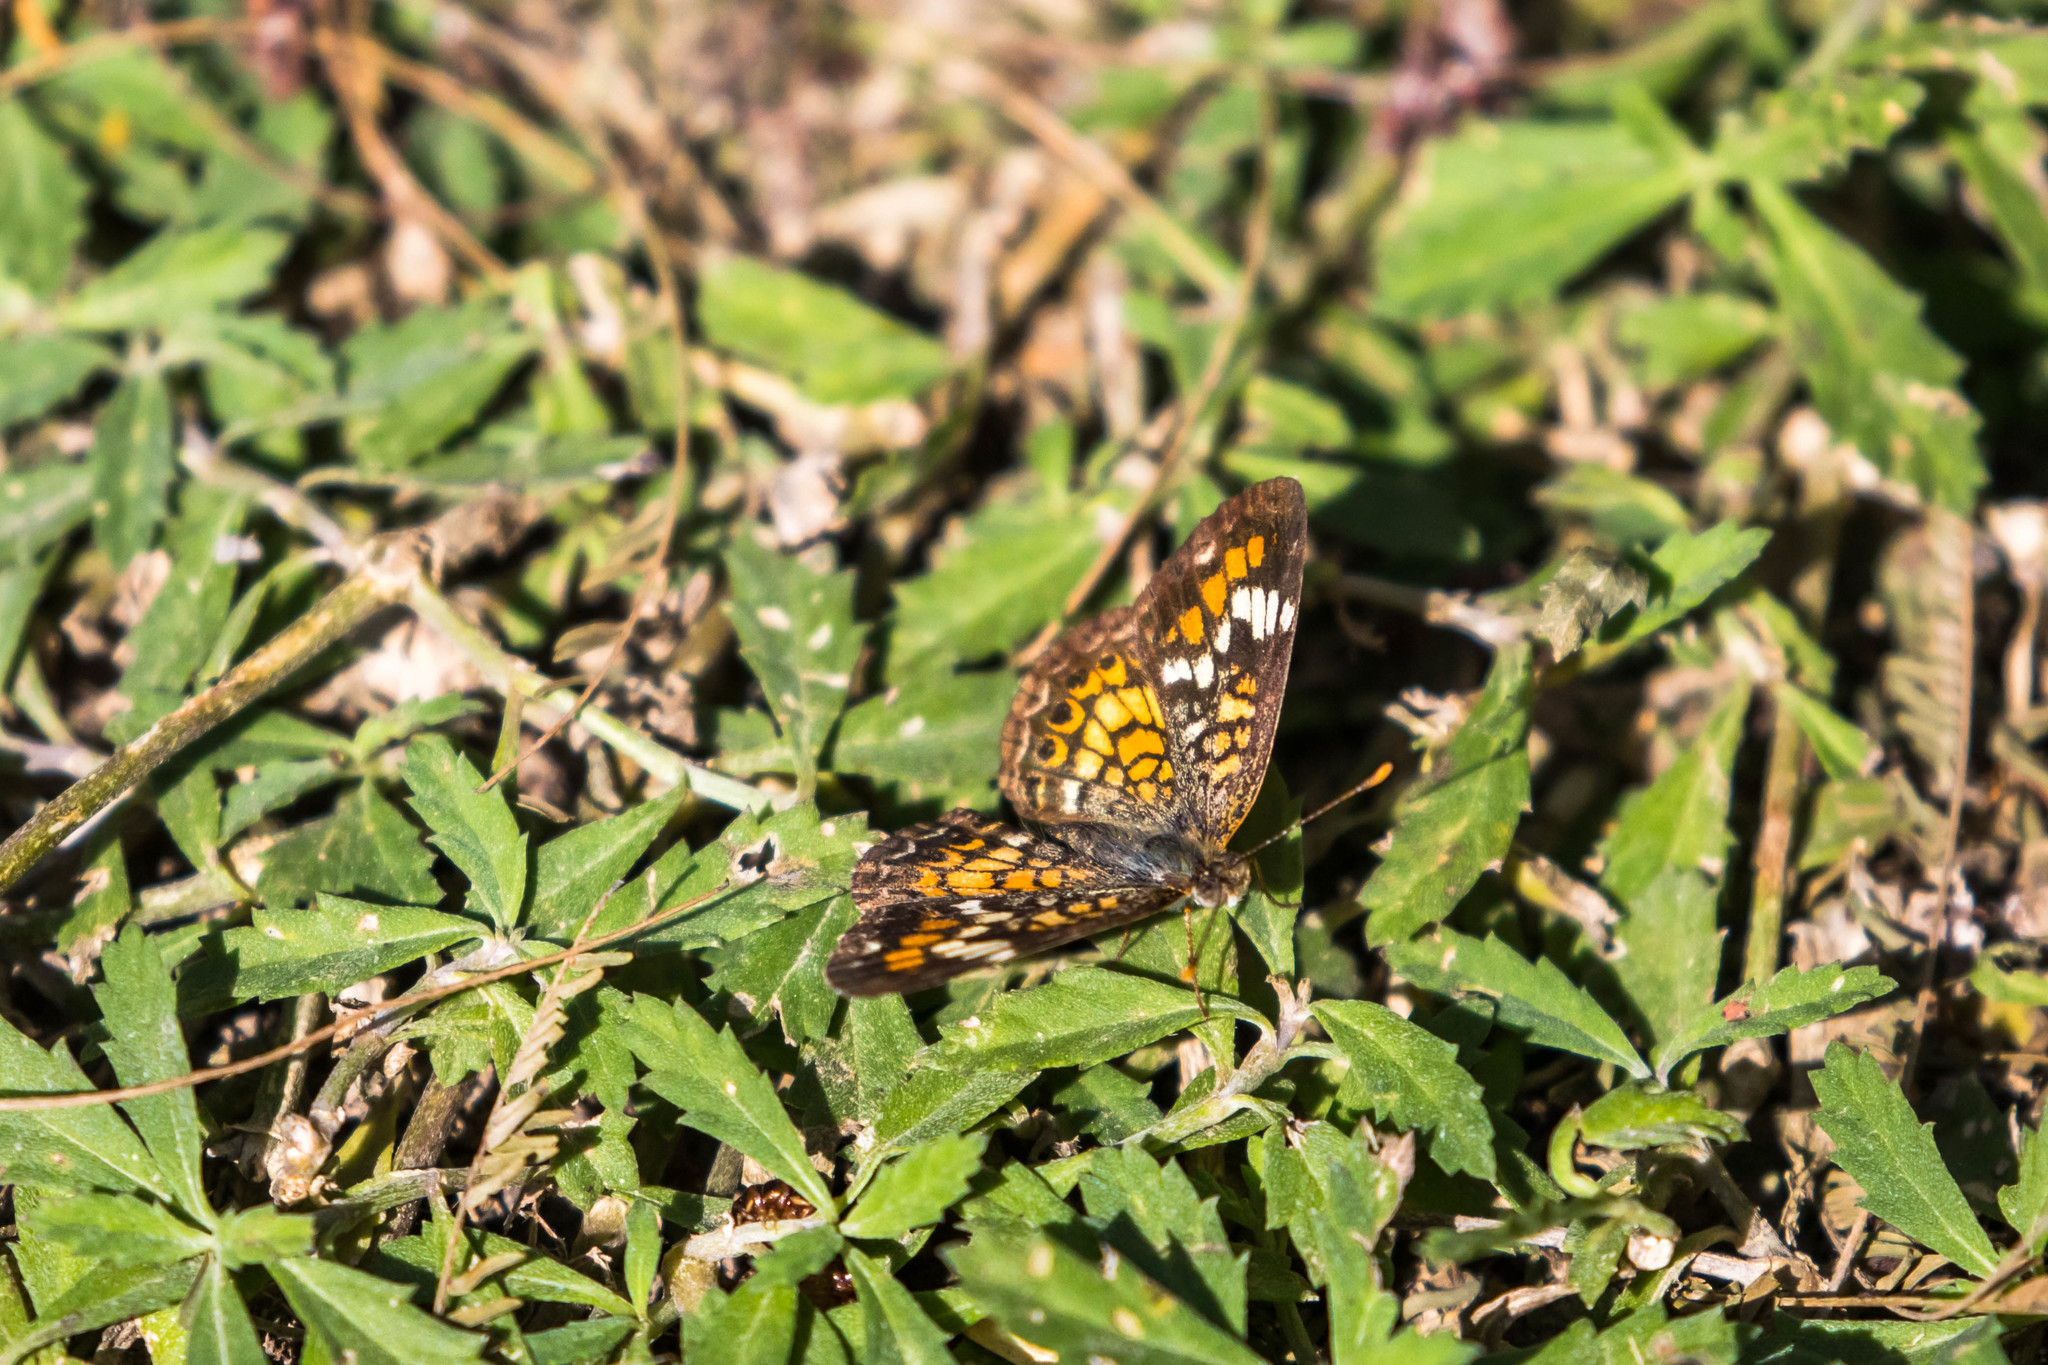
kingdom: Animalia
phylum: Arthropoda
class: Insecta
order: Lepidoptera
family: Nymphalidae
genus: Phyciodes
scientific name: Phyciodes phaon
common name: Phaon crescent
